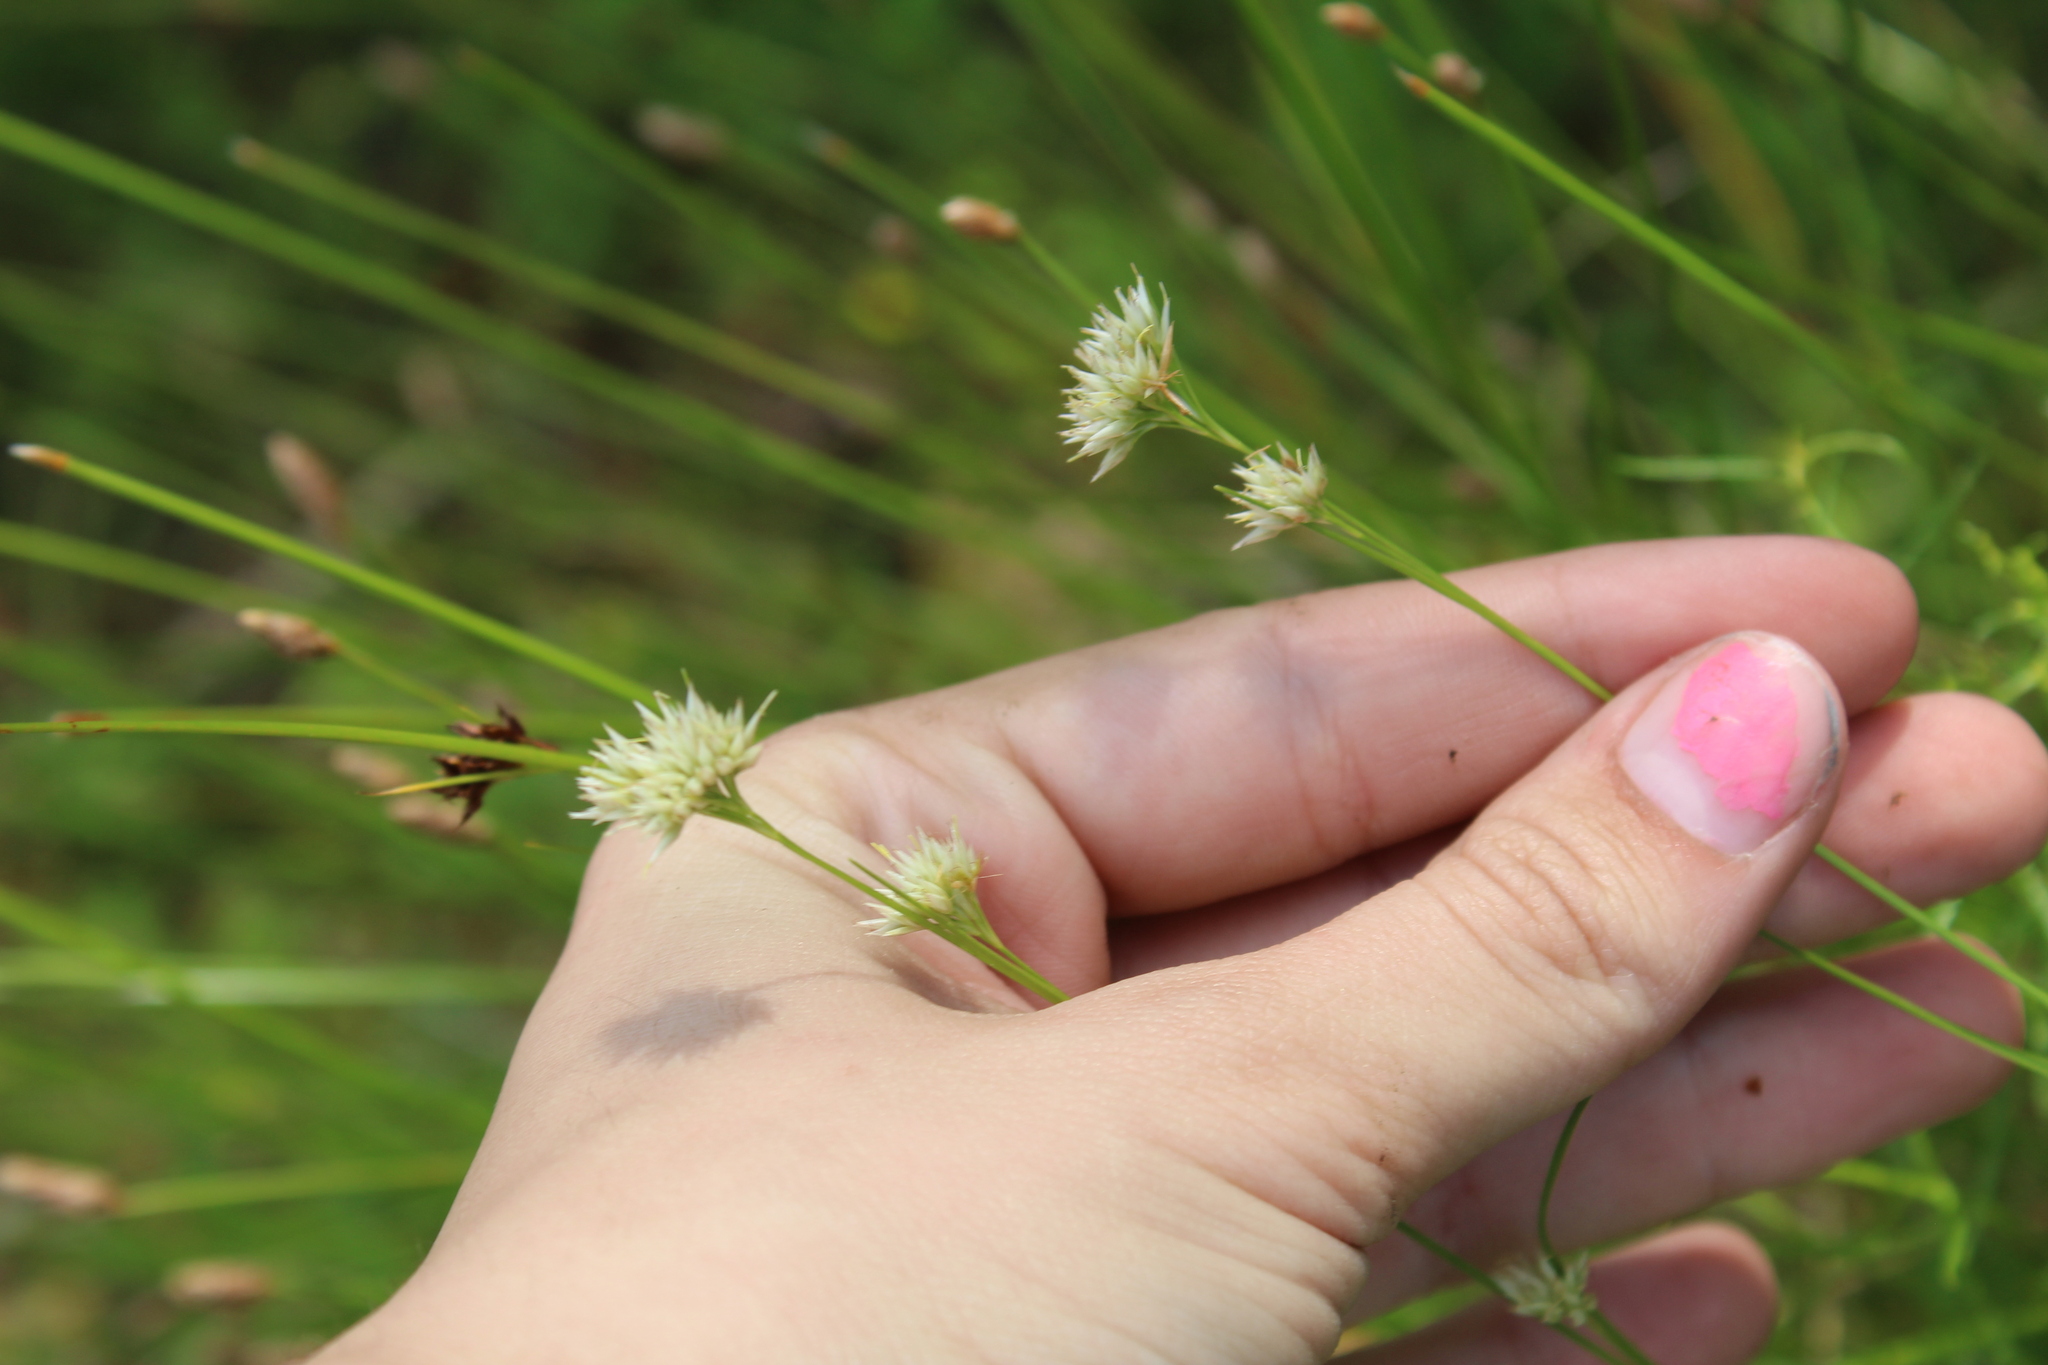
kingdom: Plantae
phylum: Tracheophyta
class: Liliopsida
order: Poales
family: Cyperaceae
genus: Rhynchospora
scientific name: Rhynchospora alba
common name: White beak-sedge
